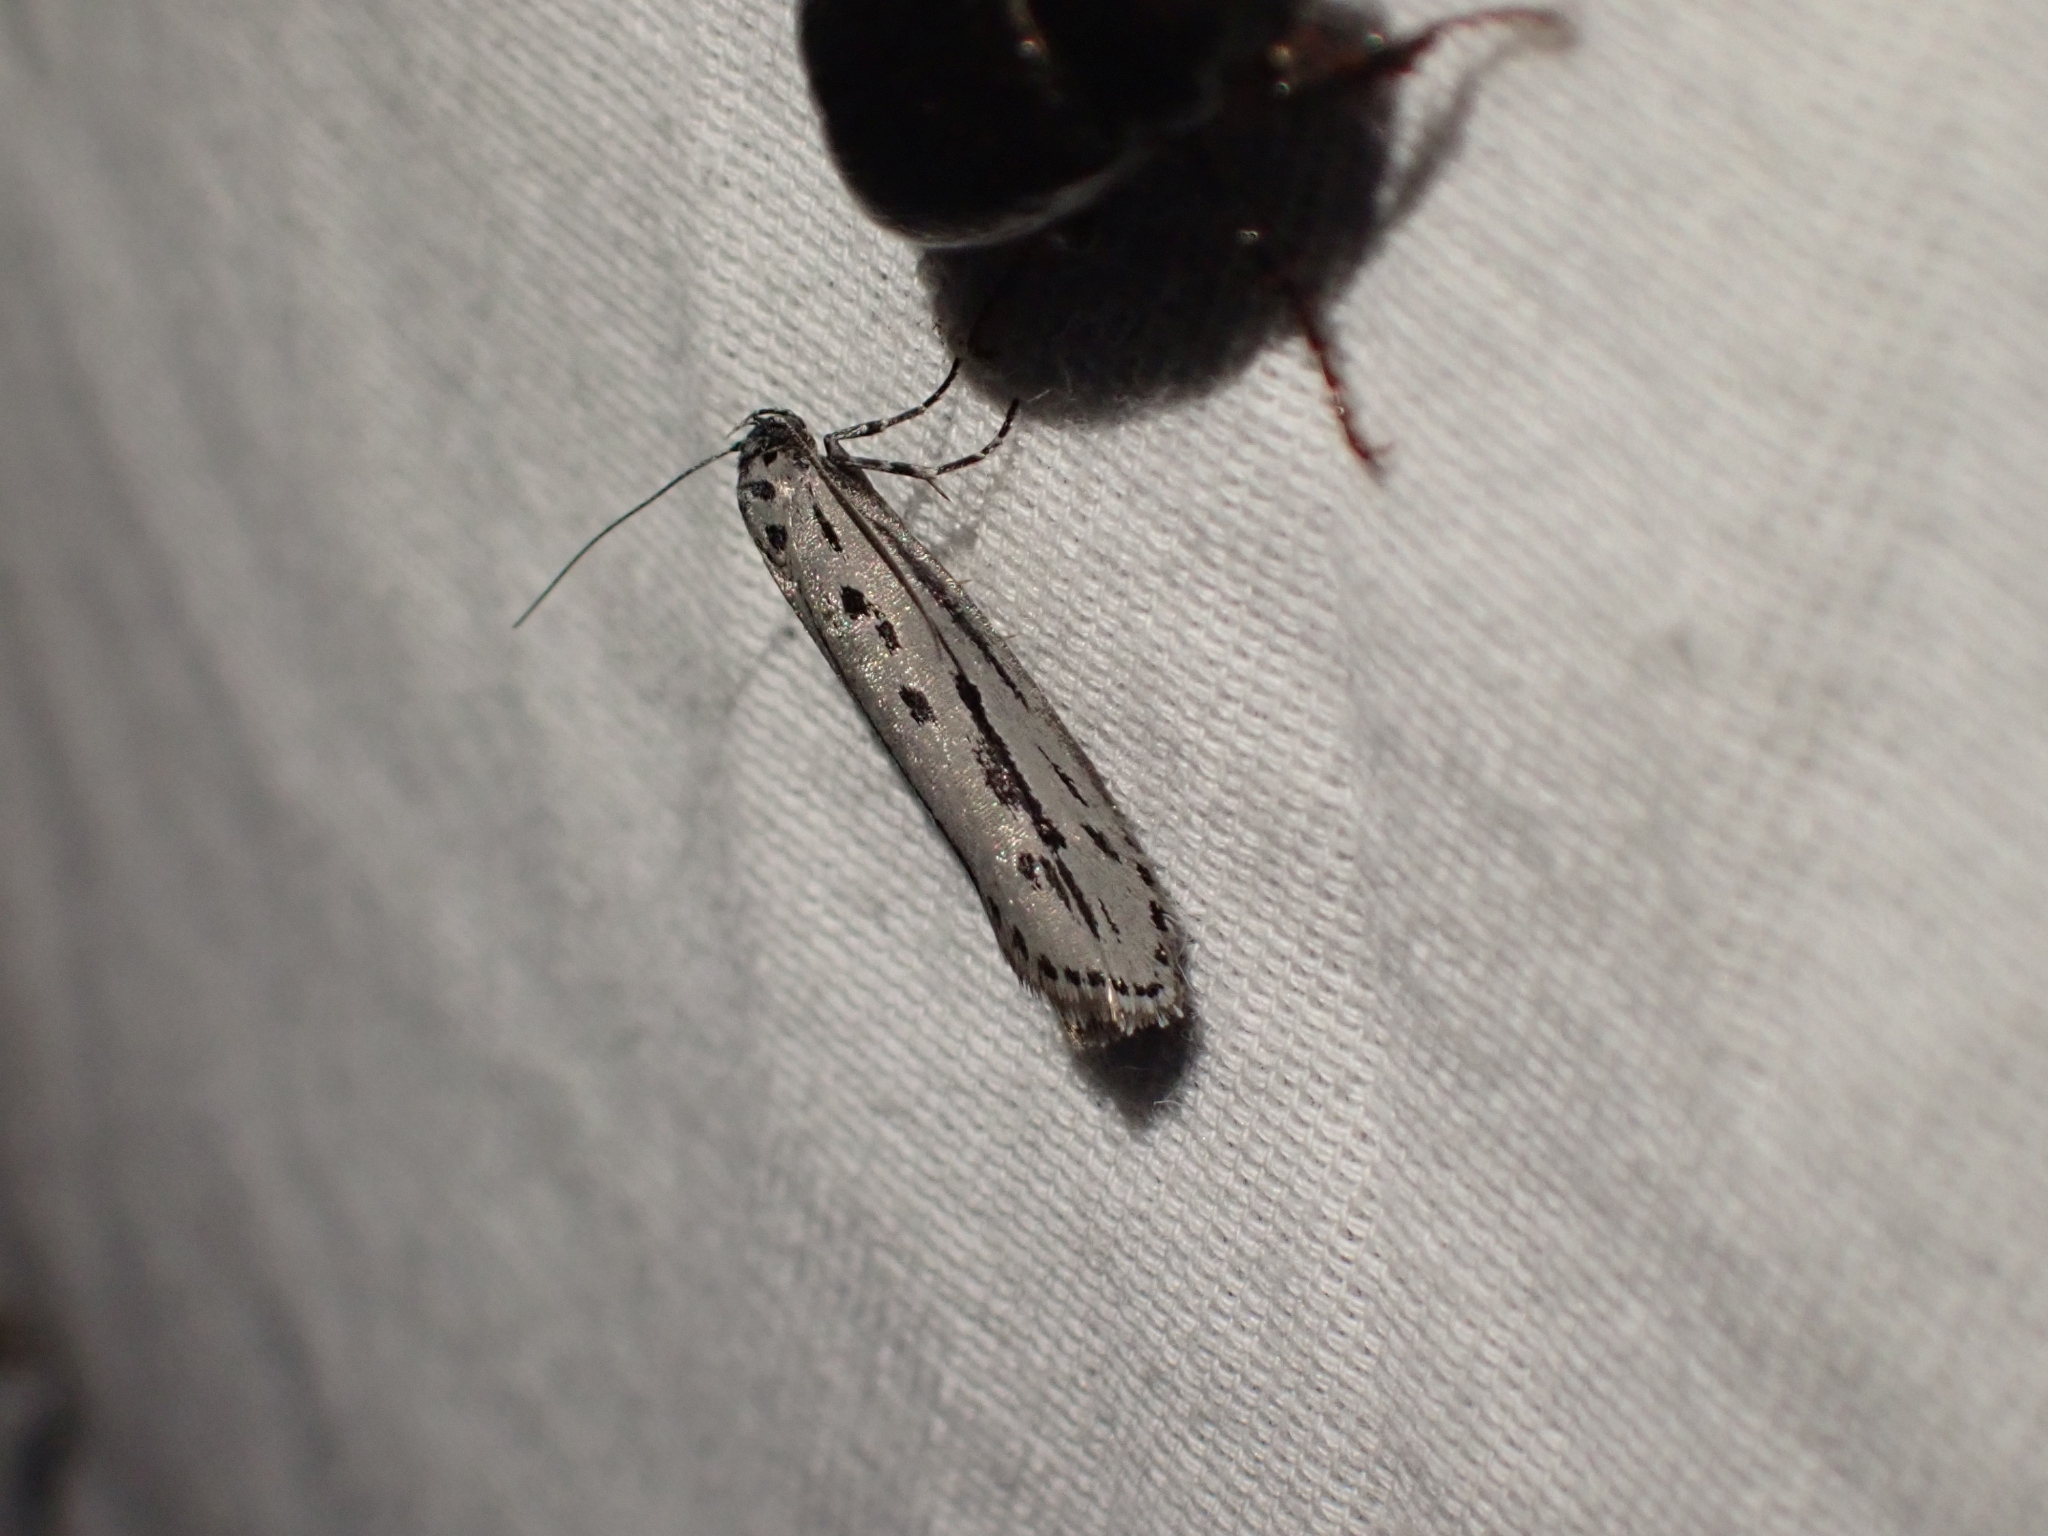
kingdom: Animalia
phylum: Arthropoda
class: Insecta
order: Lepidoptera
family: Ethmiidae
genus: Ethmia
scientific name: Ethmia monticola
